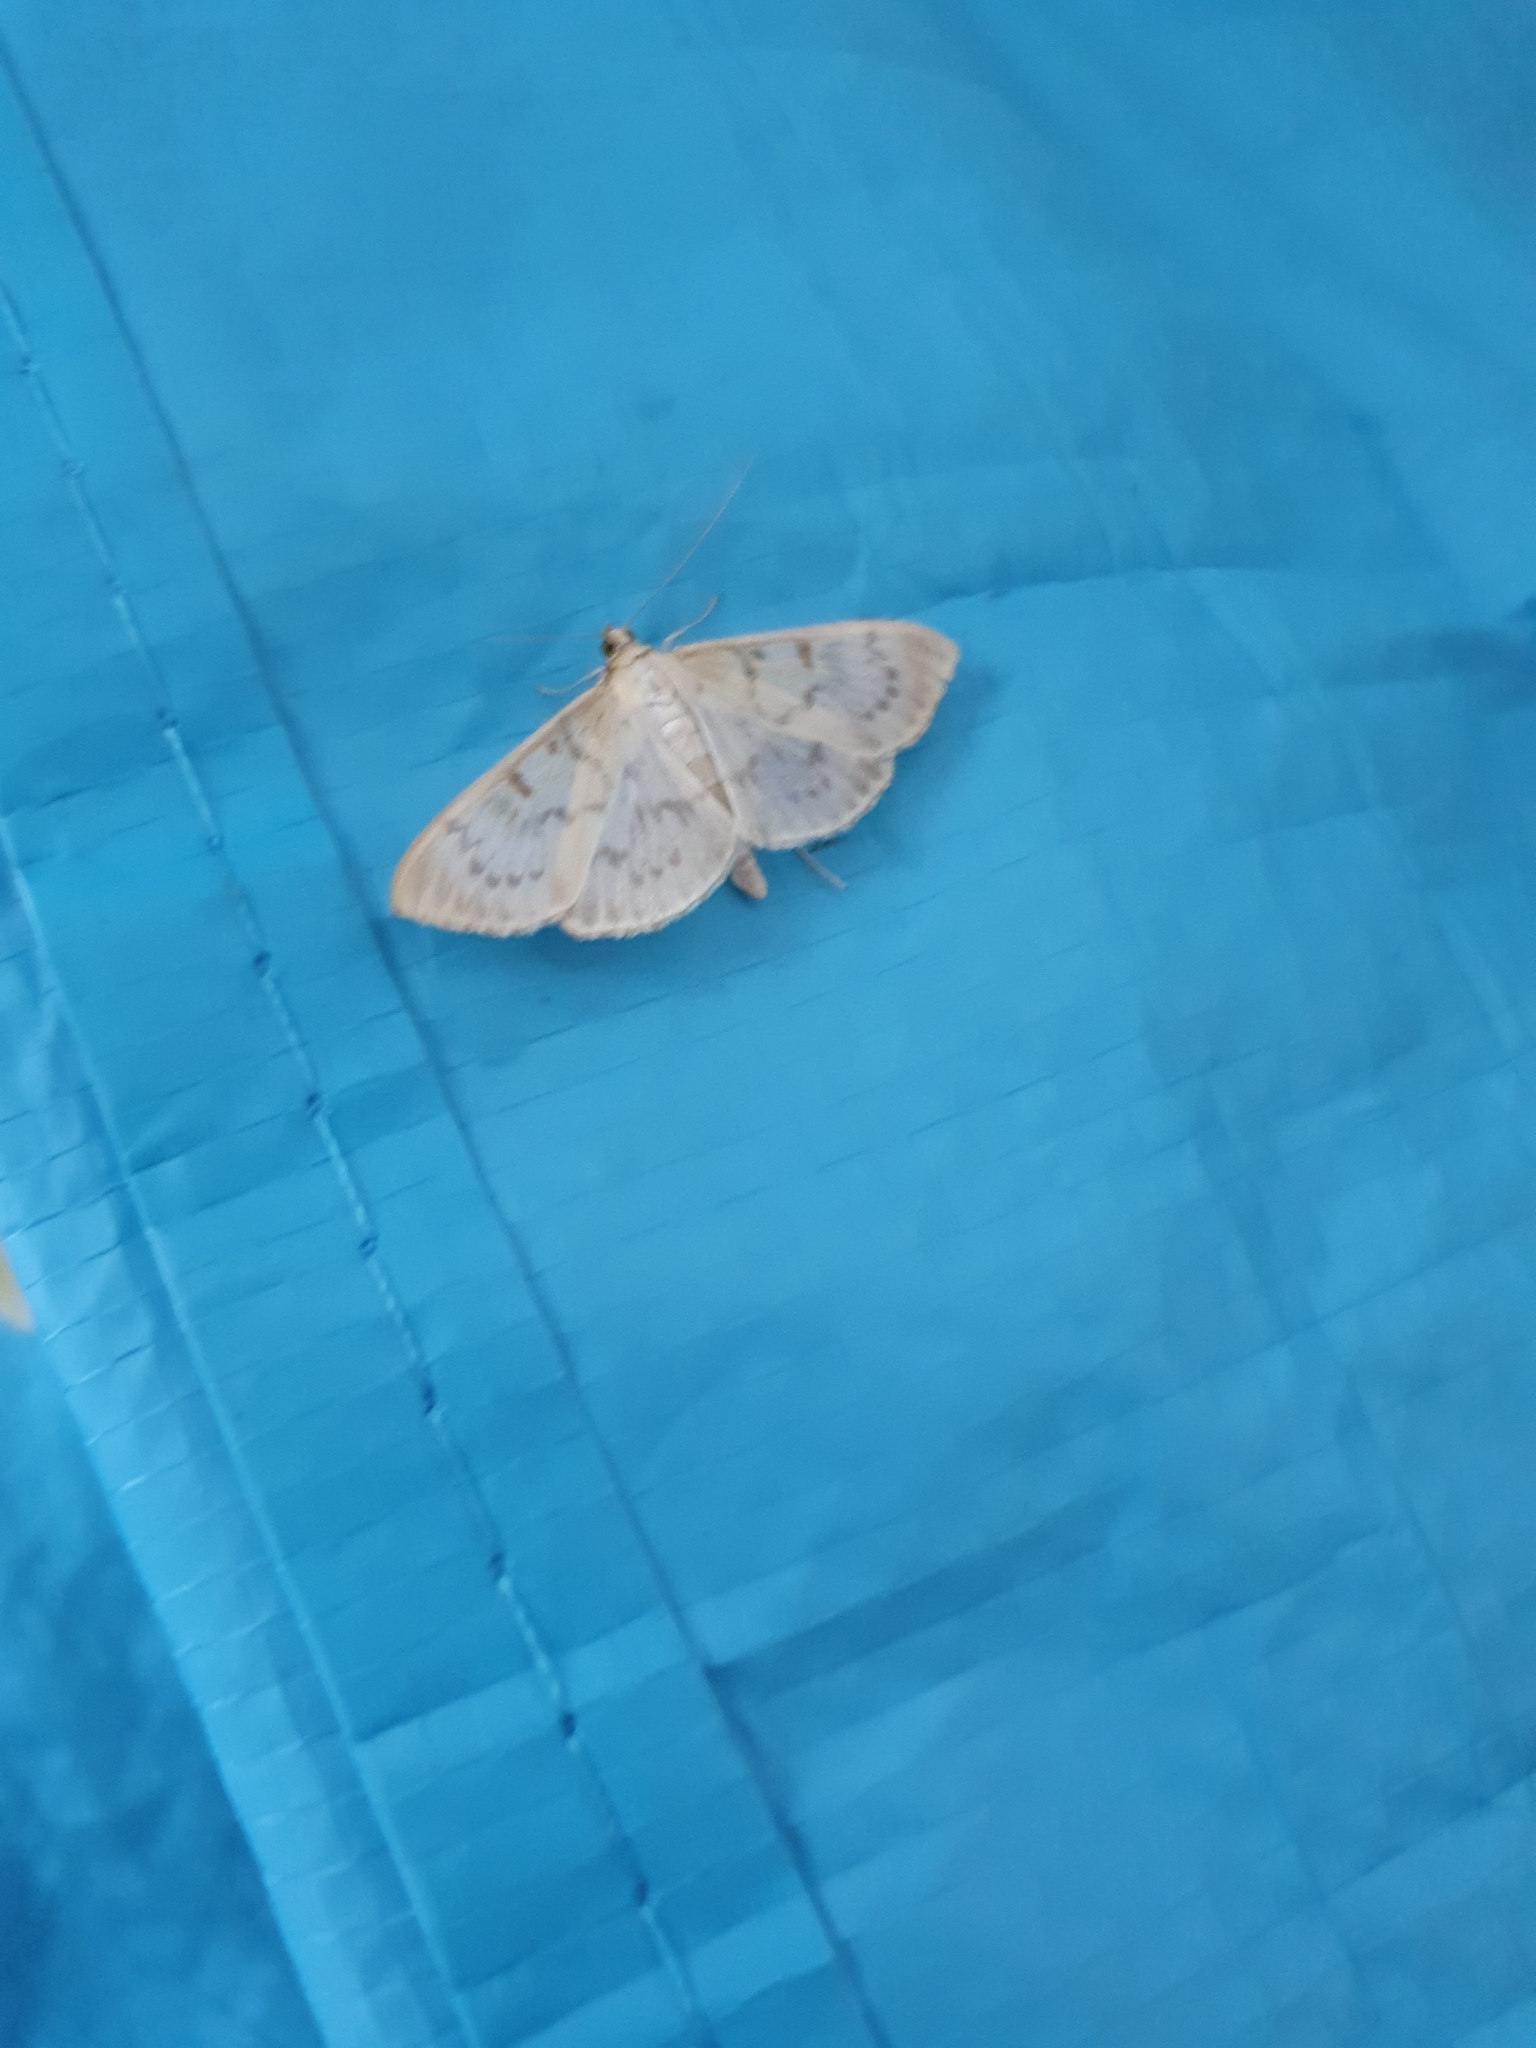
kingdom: Animalia
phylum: Arthropoda
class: Insecta
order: Lepidoptera
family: Crambidae
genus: Patania
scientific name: Patania ruralis
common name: Mother of pearl
